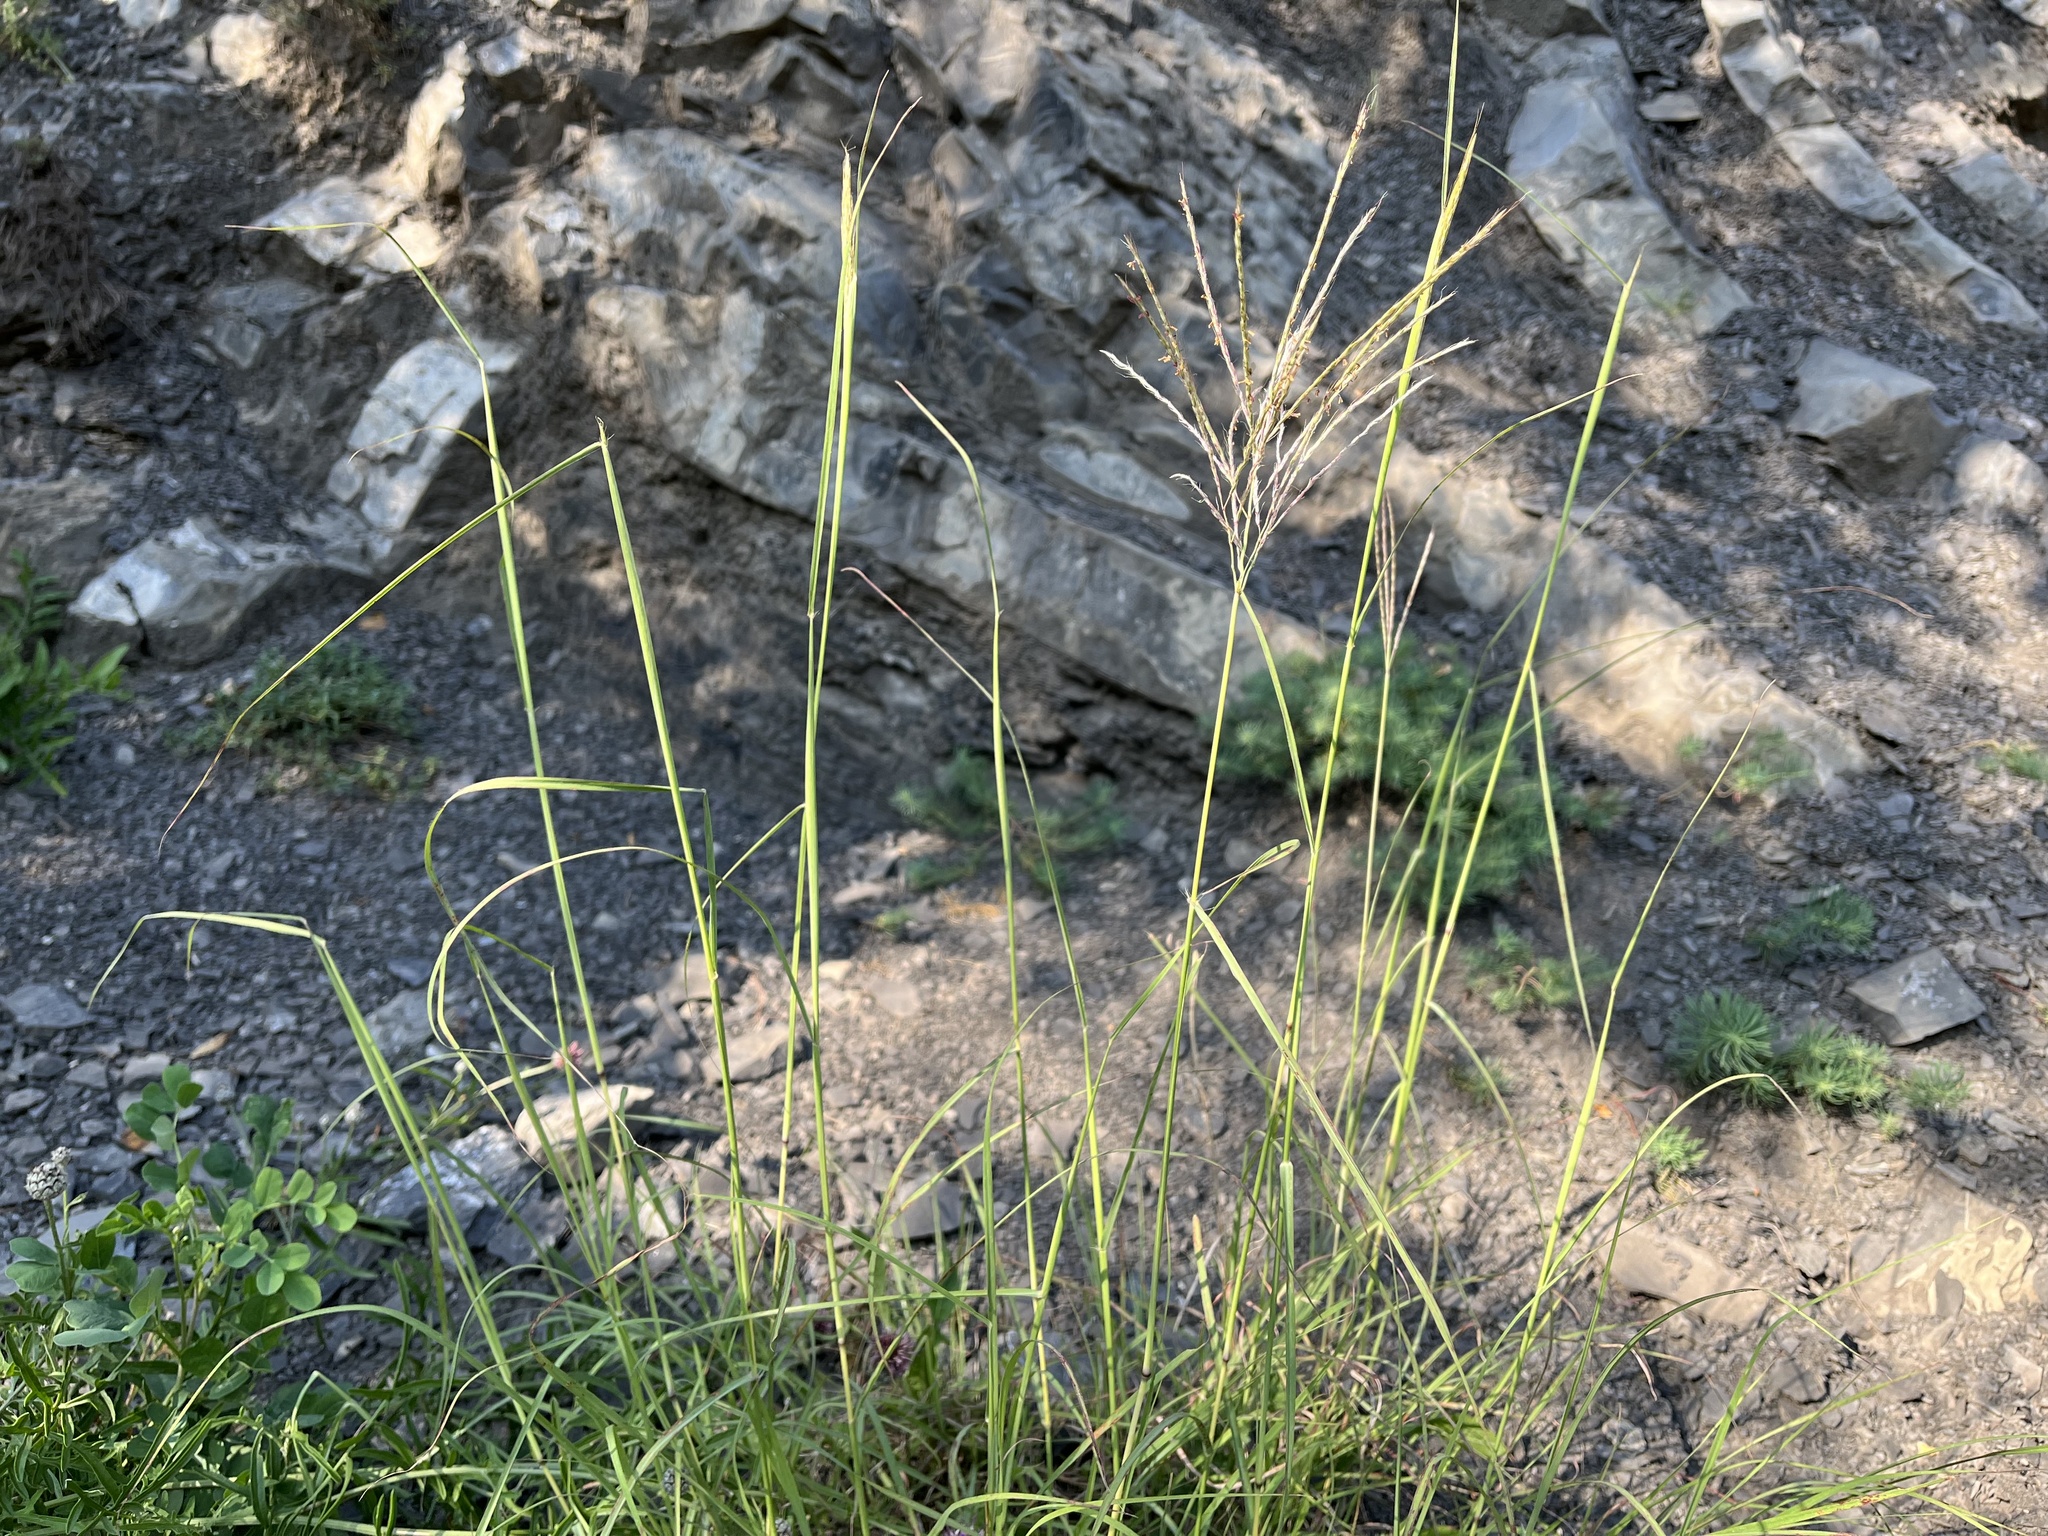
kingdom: Plantae
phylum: Tracheophyta
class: Liliopsida
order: Poales
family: Poaceae
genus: Bothriochloa
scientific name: Bothriochloa ischaemum
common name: Yellow bluestem
